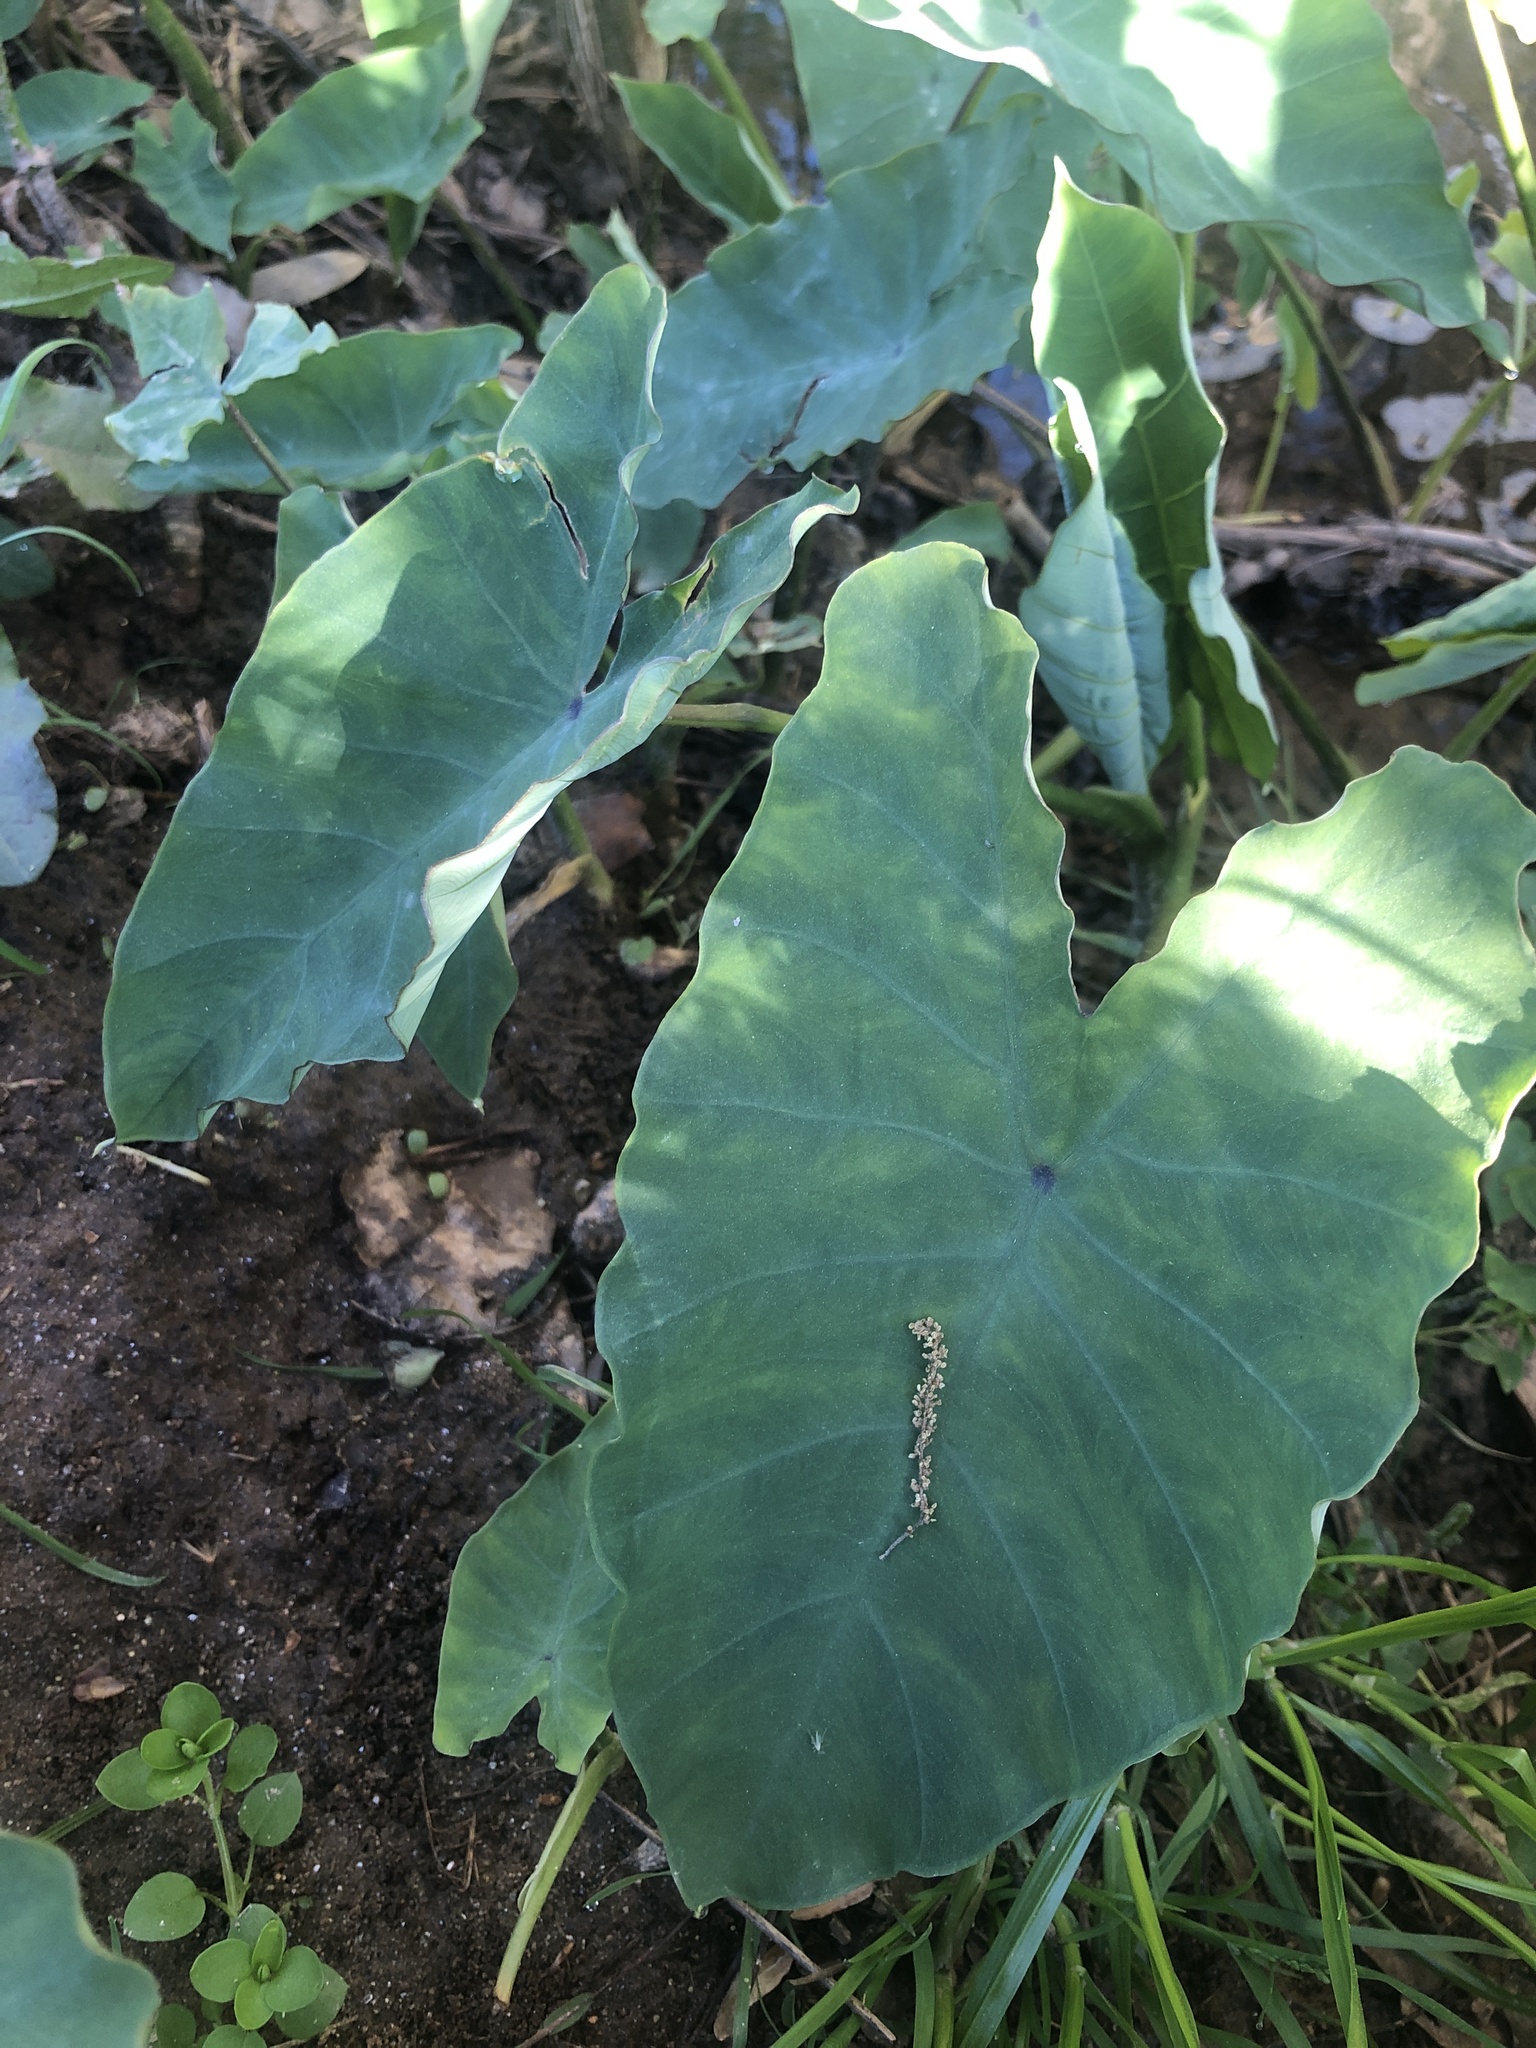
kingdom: Plantae
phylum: Tracheophyta
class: Liliopsida
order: Alismatales
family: Araceae
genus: Colocasia
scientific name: Colocasia esculenta
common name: Taro
